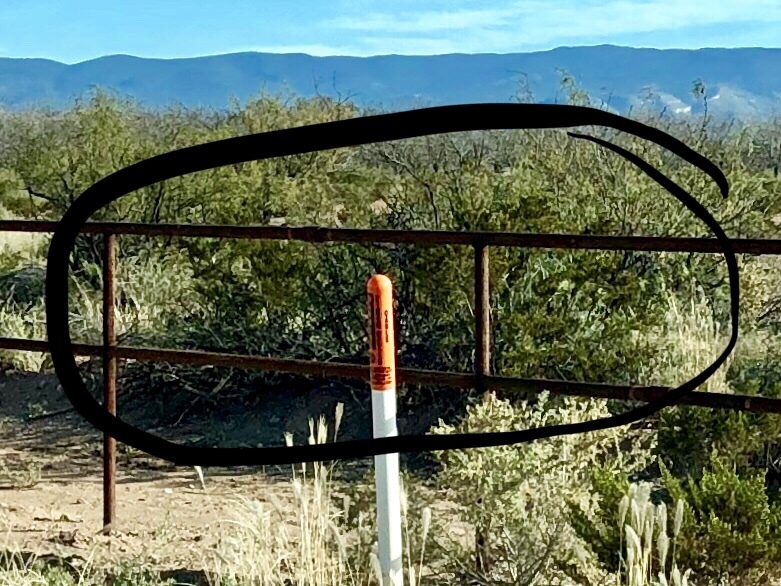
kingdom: Plantae
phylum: Tracheophyta
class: Magnoliopsida
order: Zygophyllales
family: Zygophyllaceae
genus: Larrea
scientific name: Larrea tridentata
